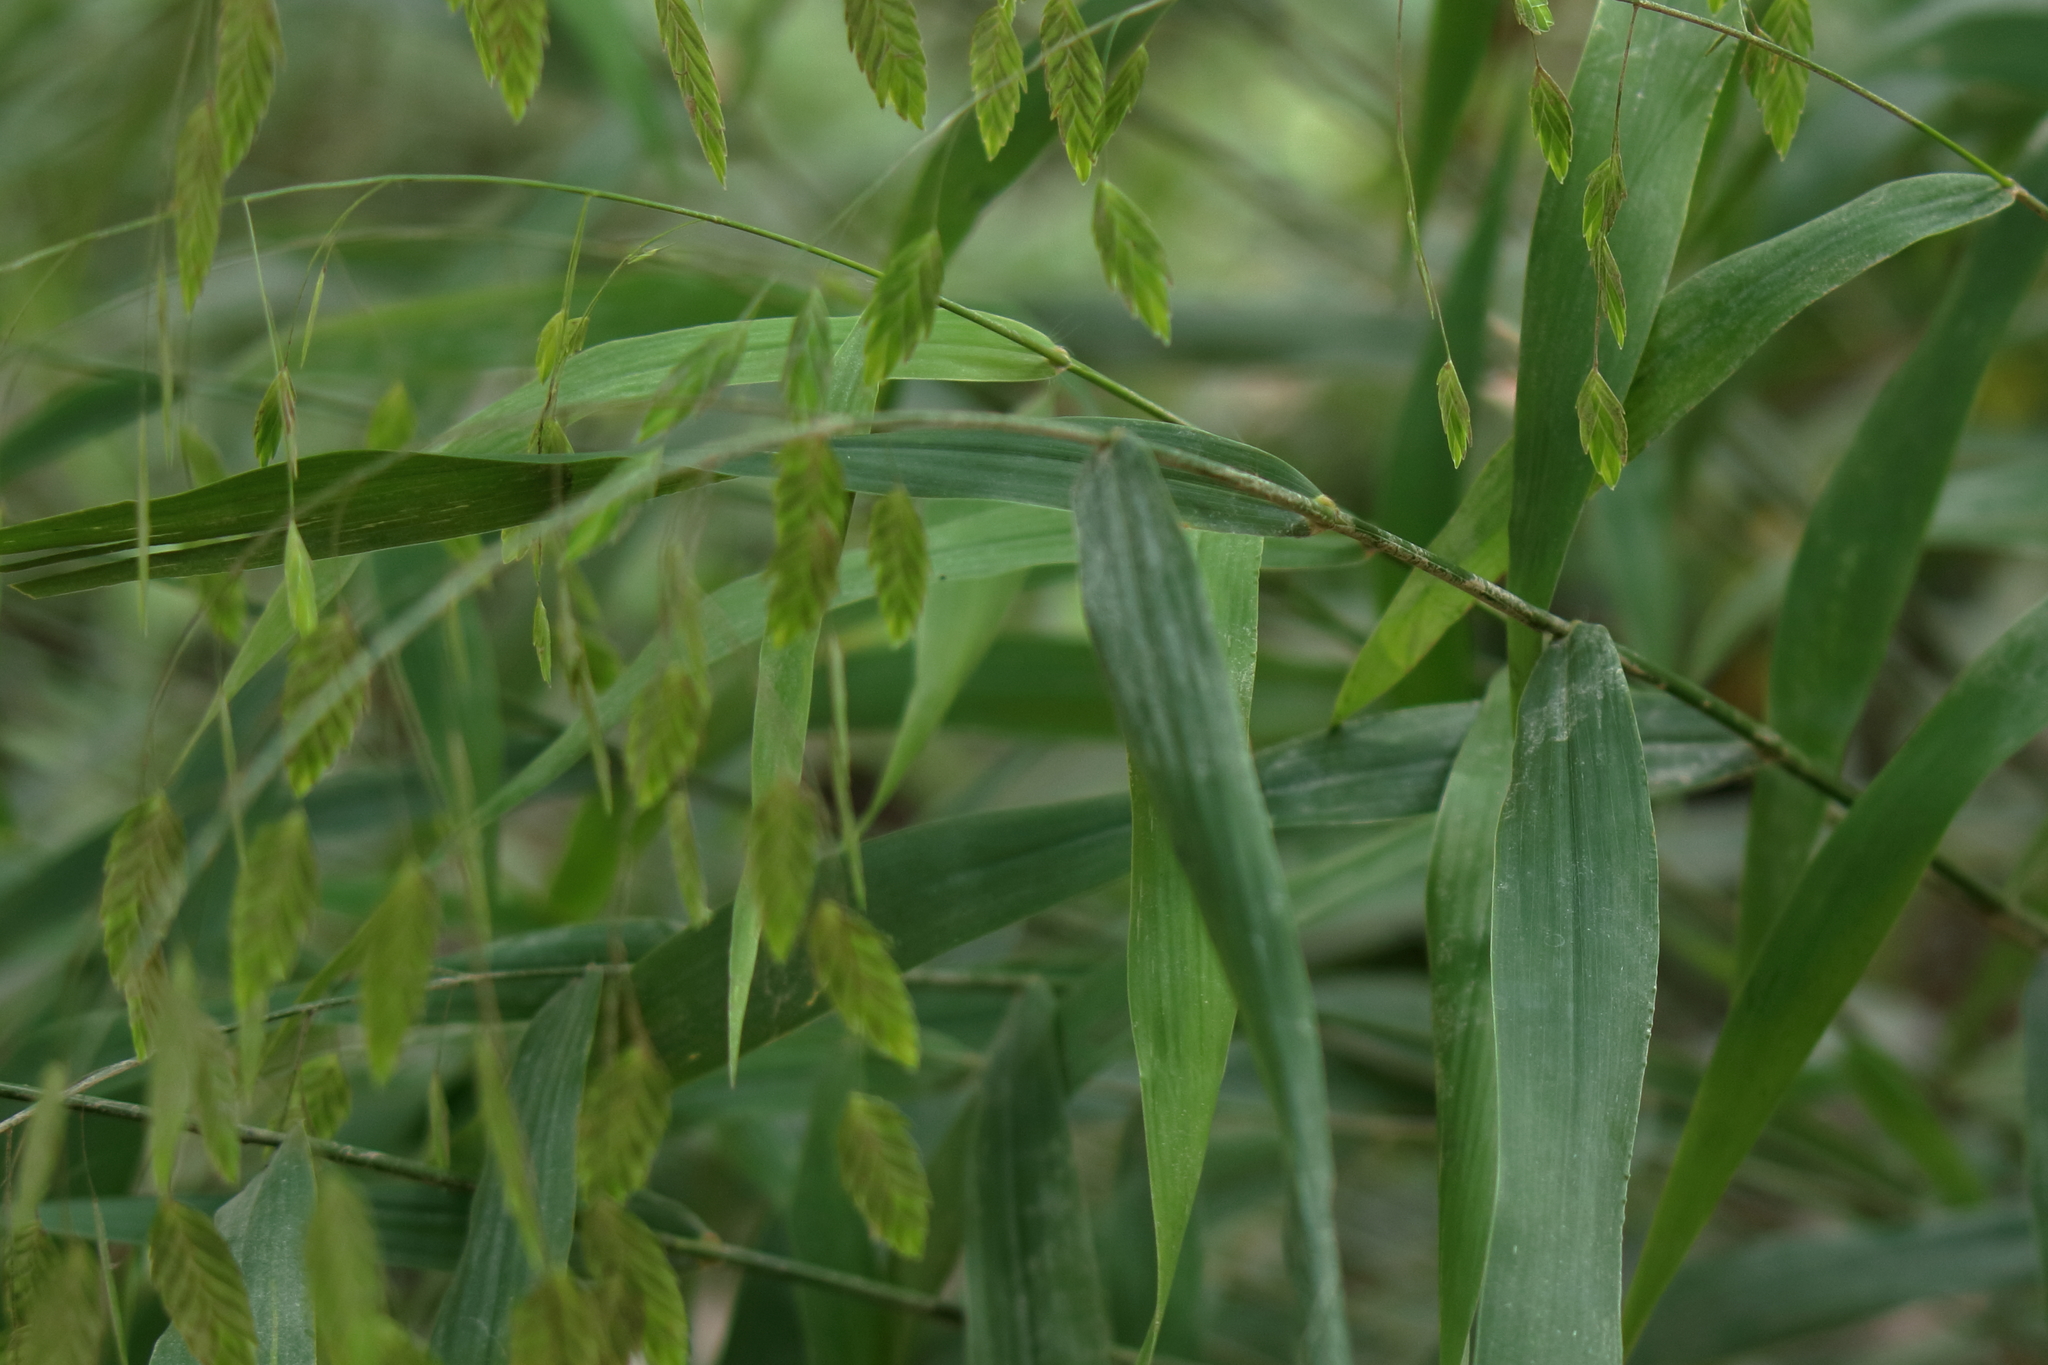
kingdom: Plantae
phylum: Tracheophyta
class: Liliopsida
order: Poales
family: Poaceae
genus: Chasmanthium
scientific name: Chasmanthium latifolium
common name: Broad-leaved chasmanthium
